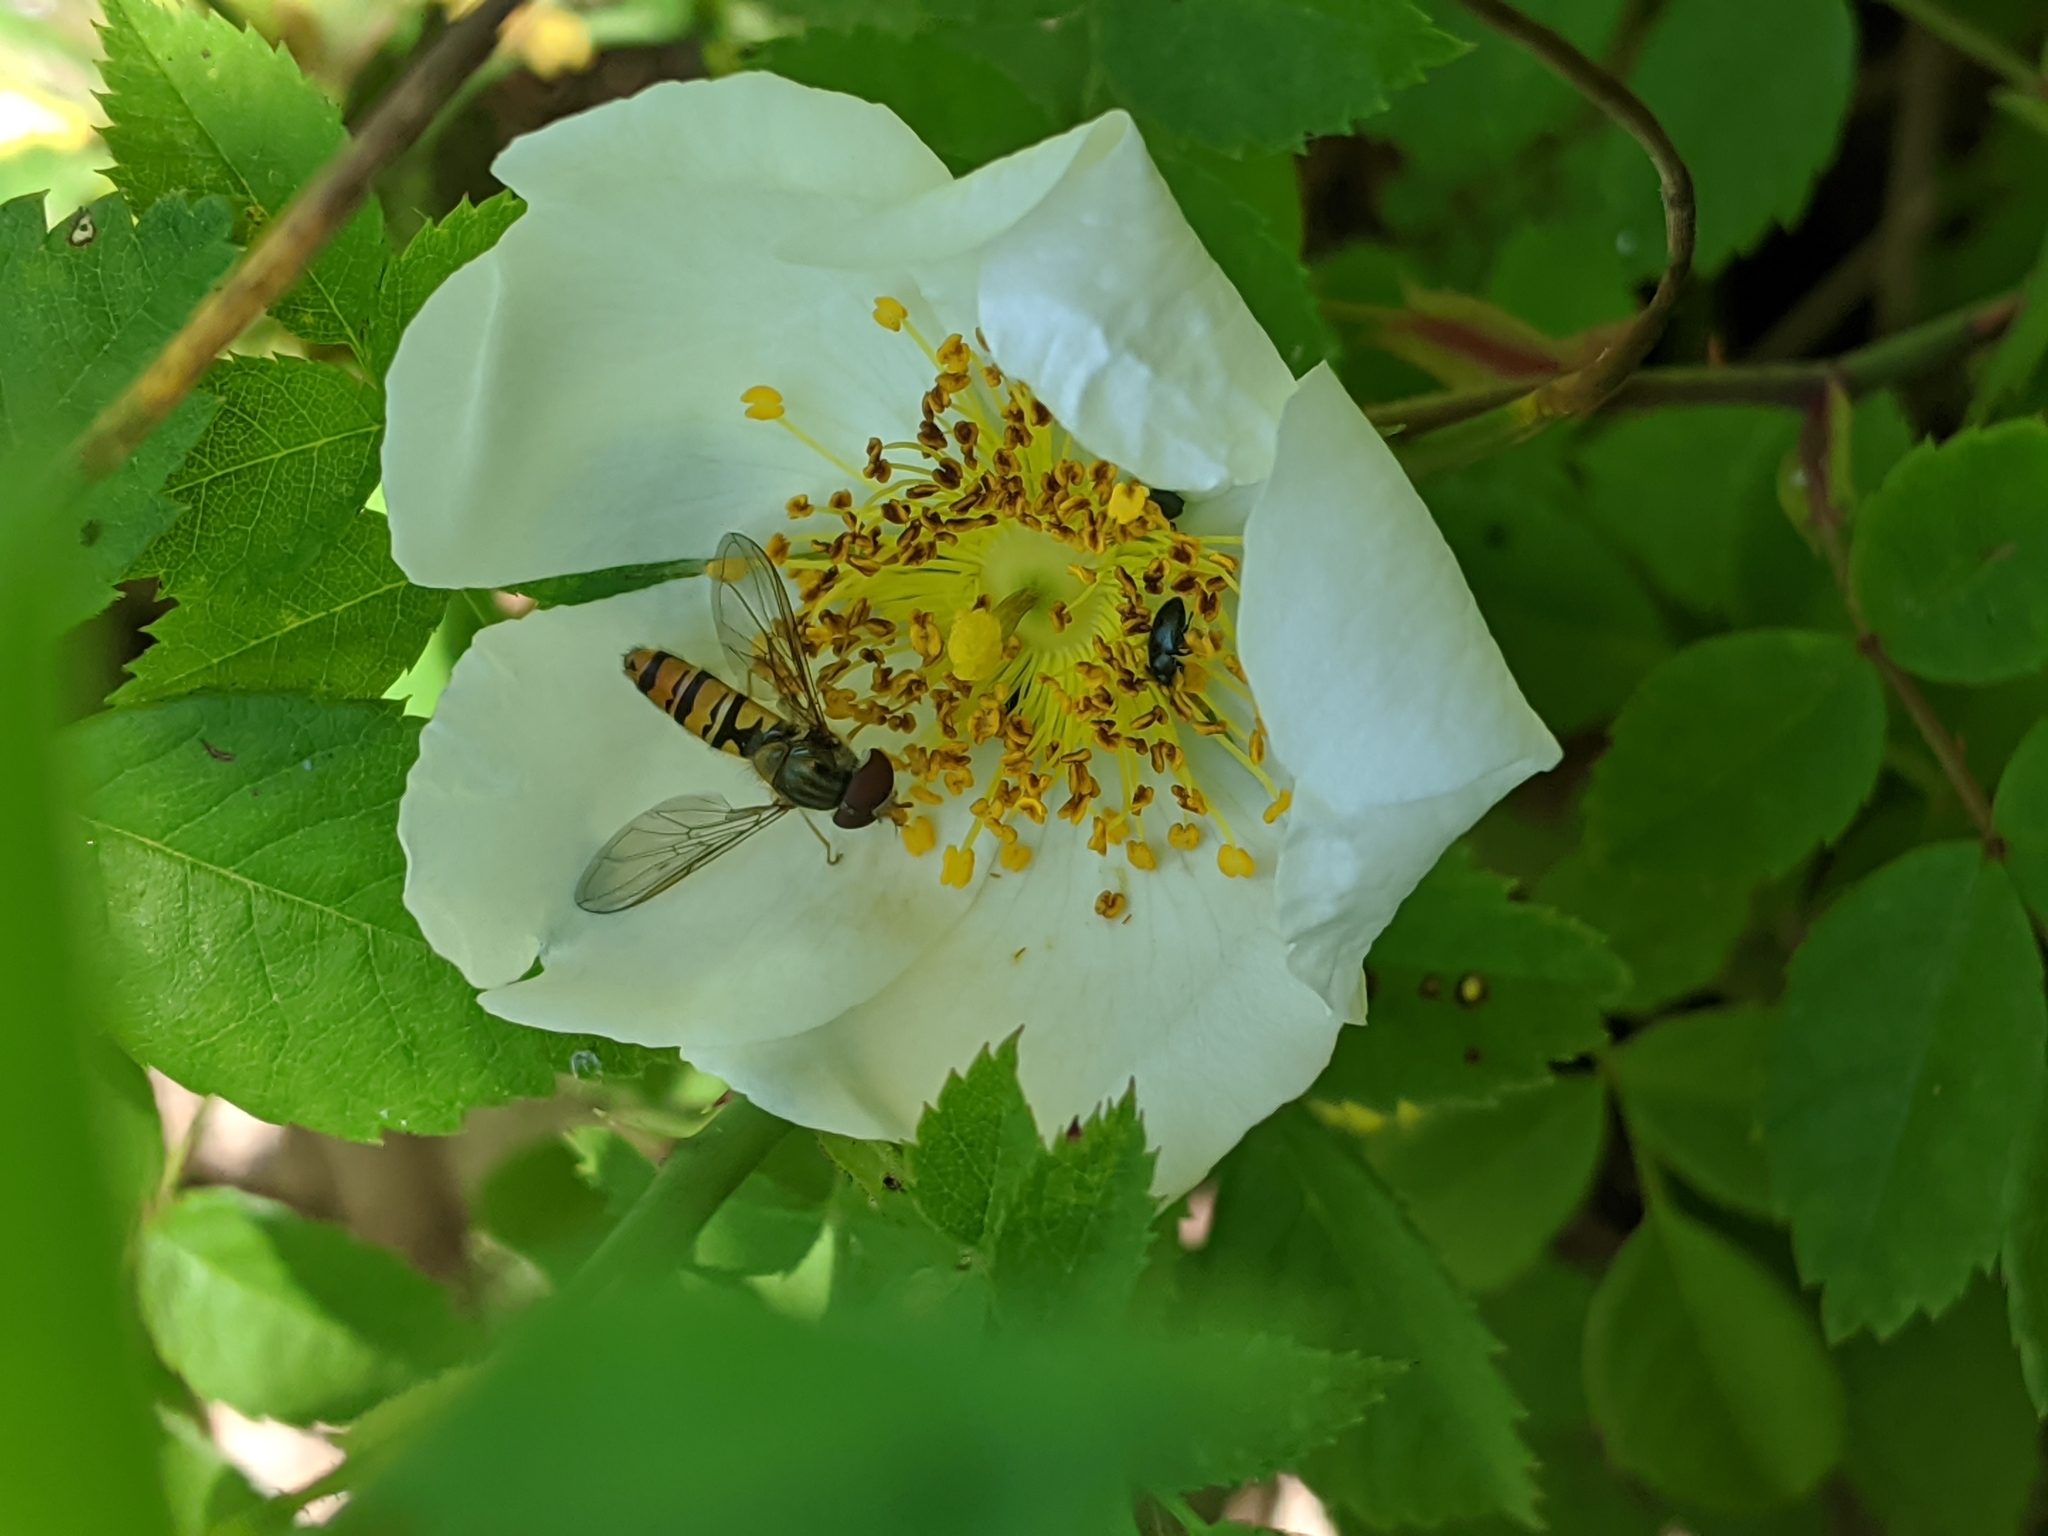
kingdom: Animalia
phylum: Arthropoda
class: Insecta
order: Diptera
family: Syrphidae
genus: Episyrphus
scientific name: Episyrphus balteatus
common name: Marmalade hoverfly
